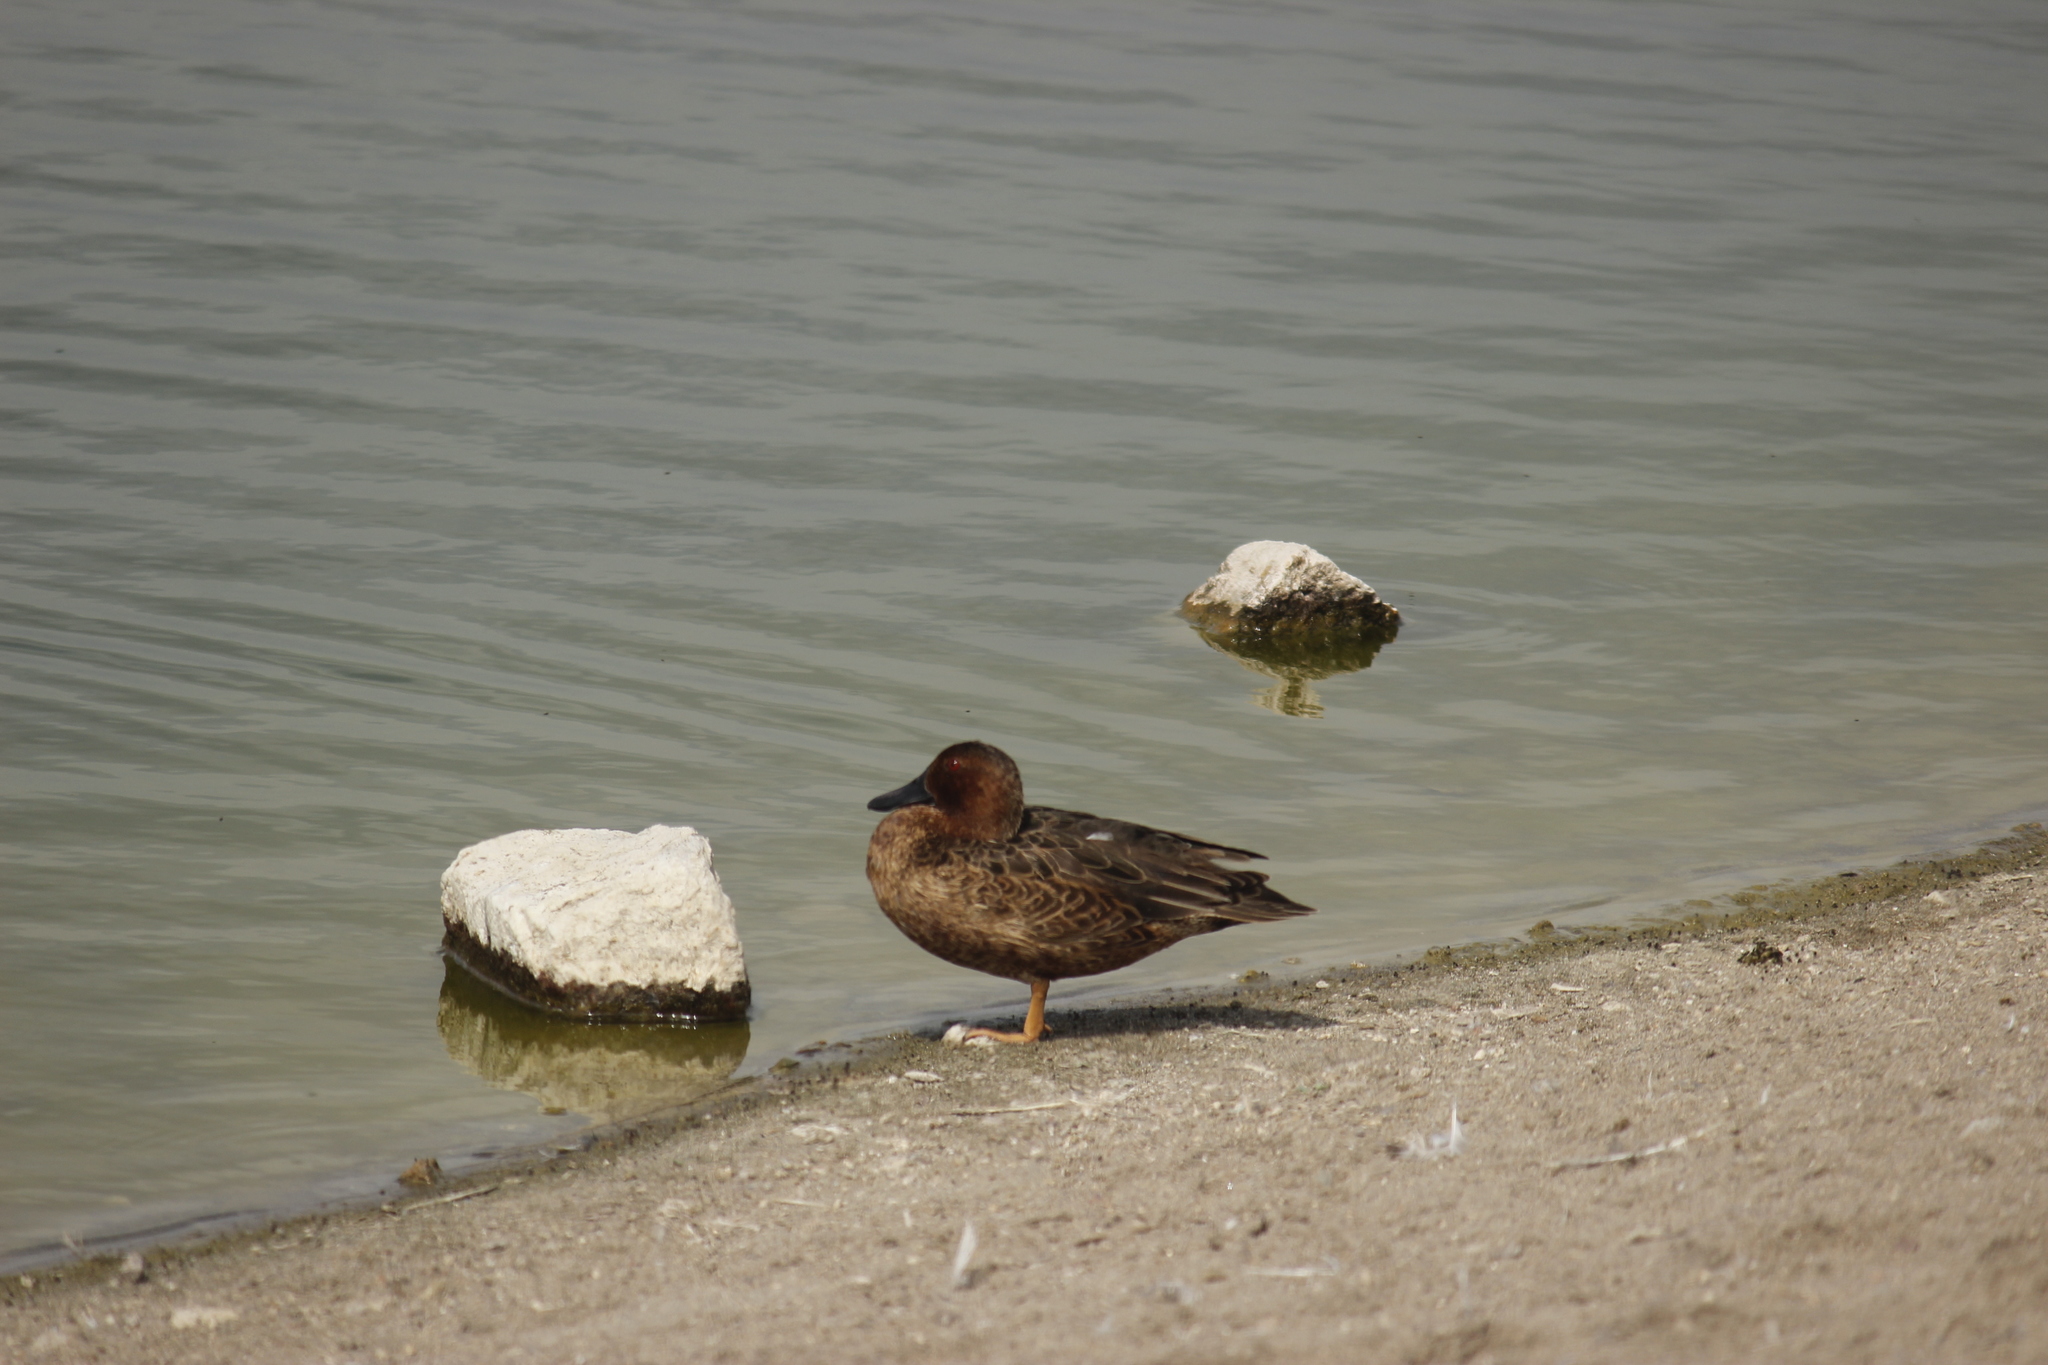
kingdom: Animalia
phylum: Chordata
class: Aves
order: Anseriformes
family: Anatidae
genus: Spatula
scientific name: Spatula cyanoptera
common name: Cinnamon teal
